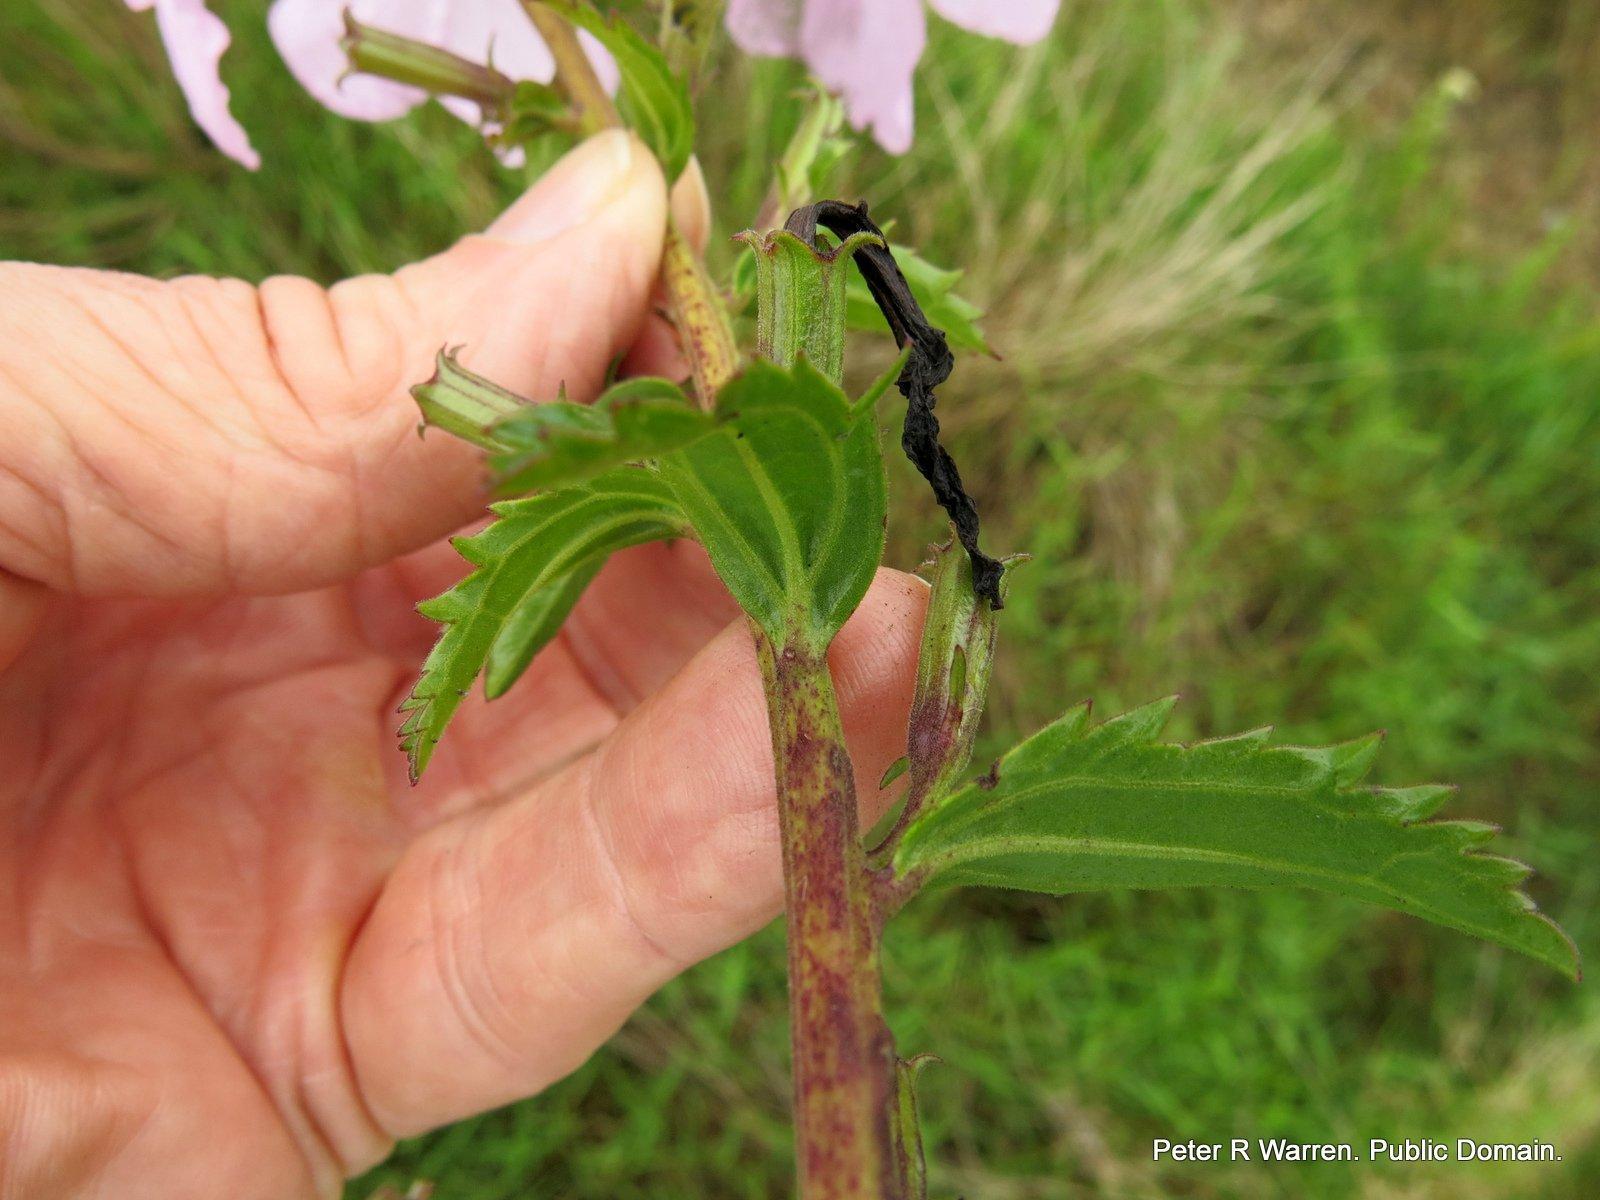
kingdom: Plantae
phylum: Tracheophyta
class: Magnoliopsida
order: Lamiales
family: Orobanchaceae
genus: Cycnium
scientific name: Cycnium racemosum
